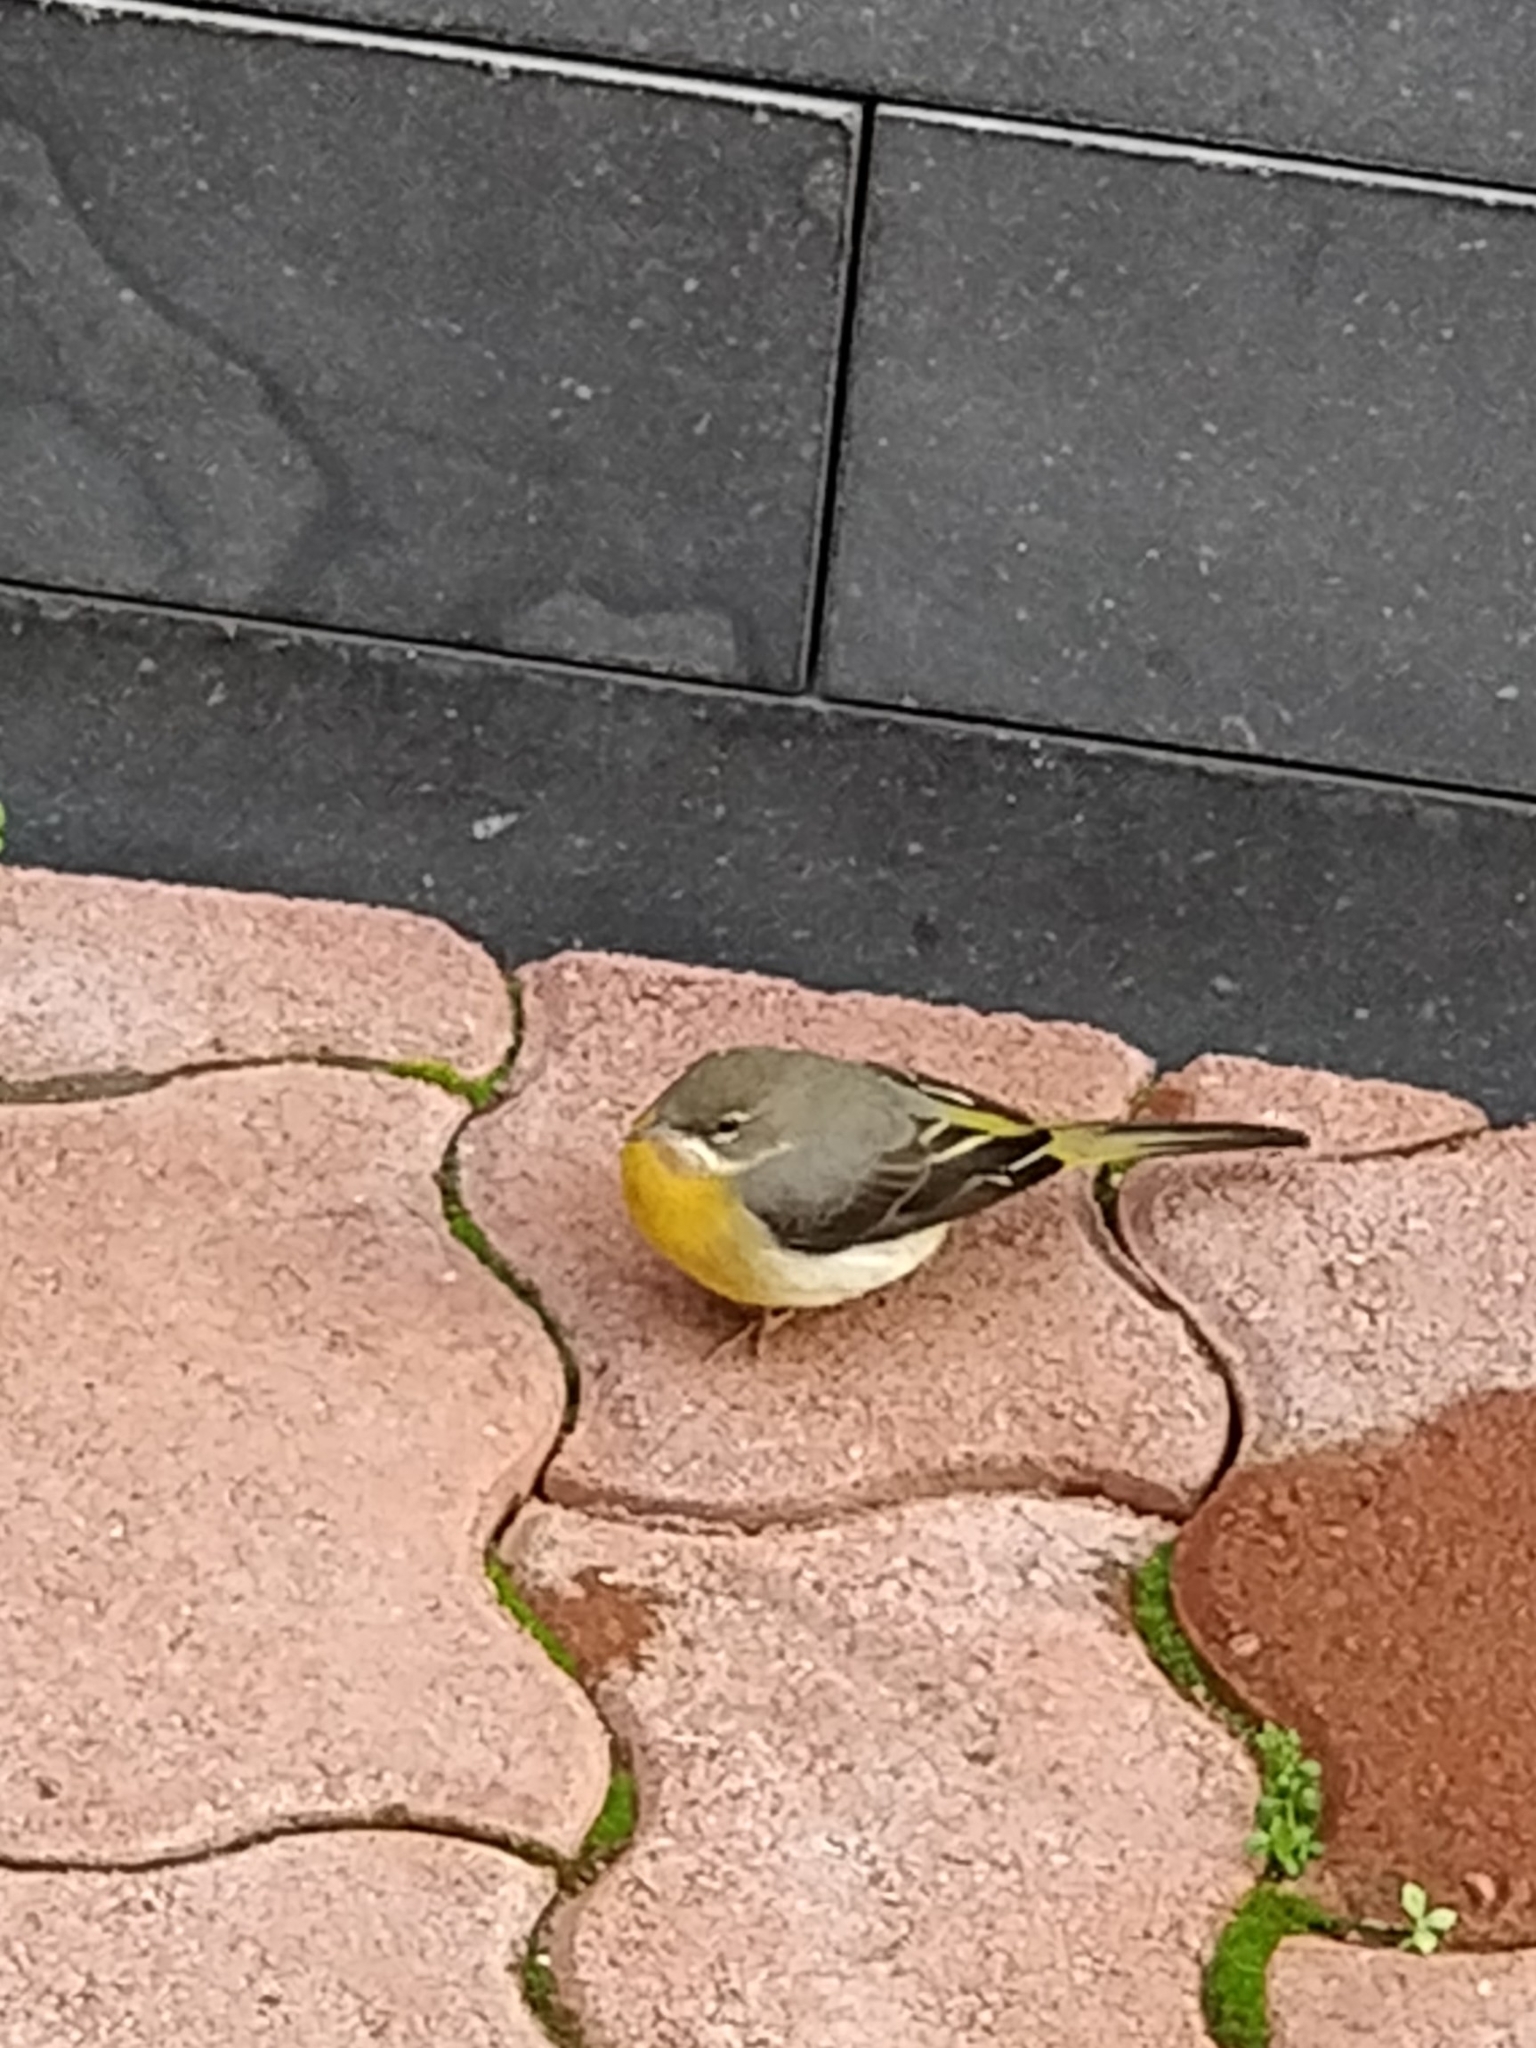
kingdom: Animalia
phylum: Chordata
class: Aves
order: Passeriformes
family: Motacillidae
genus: Motacilla
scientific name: Motacilla cinerea
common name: Grey wagtail
